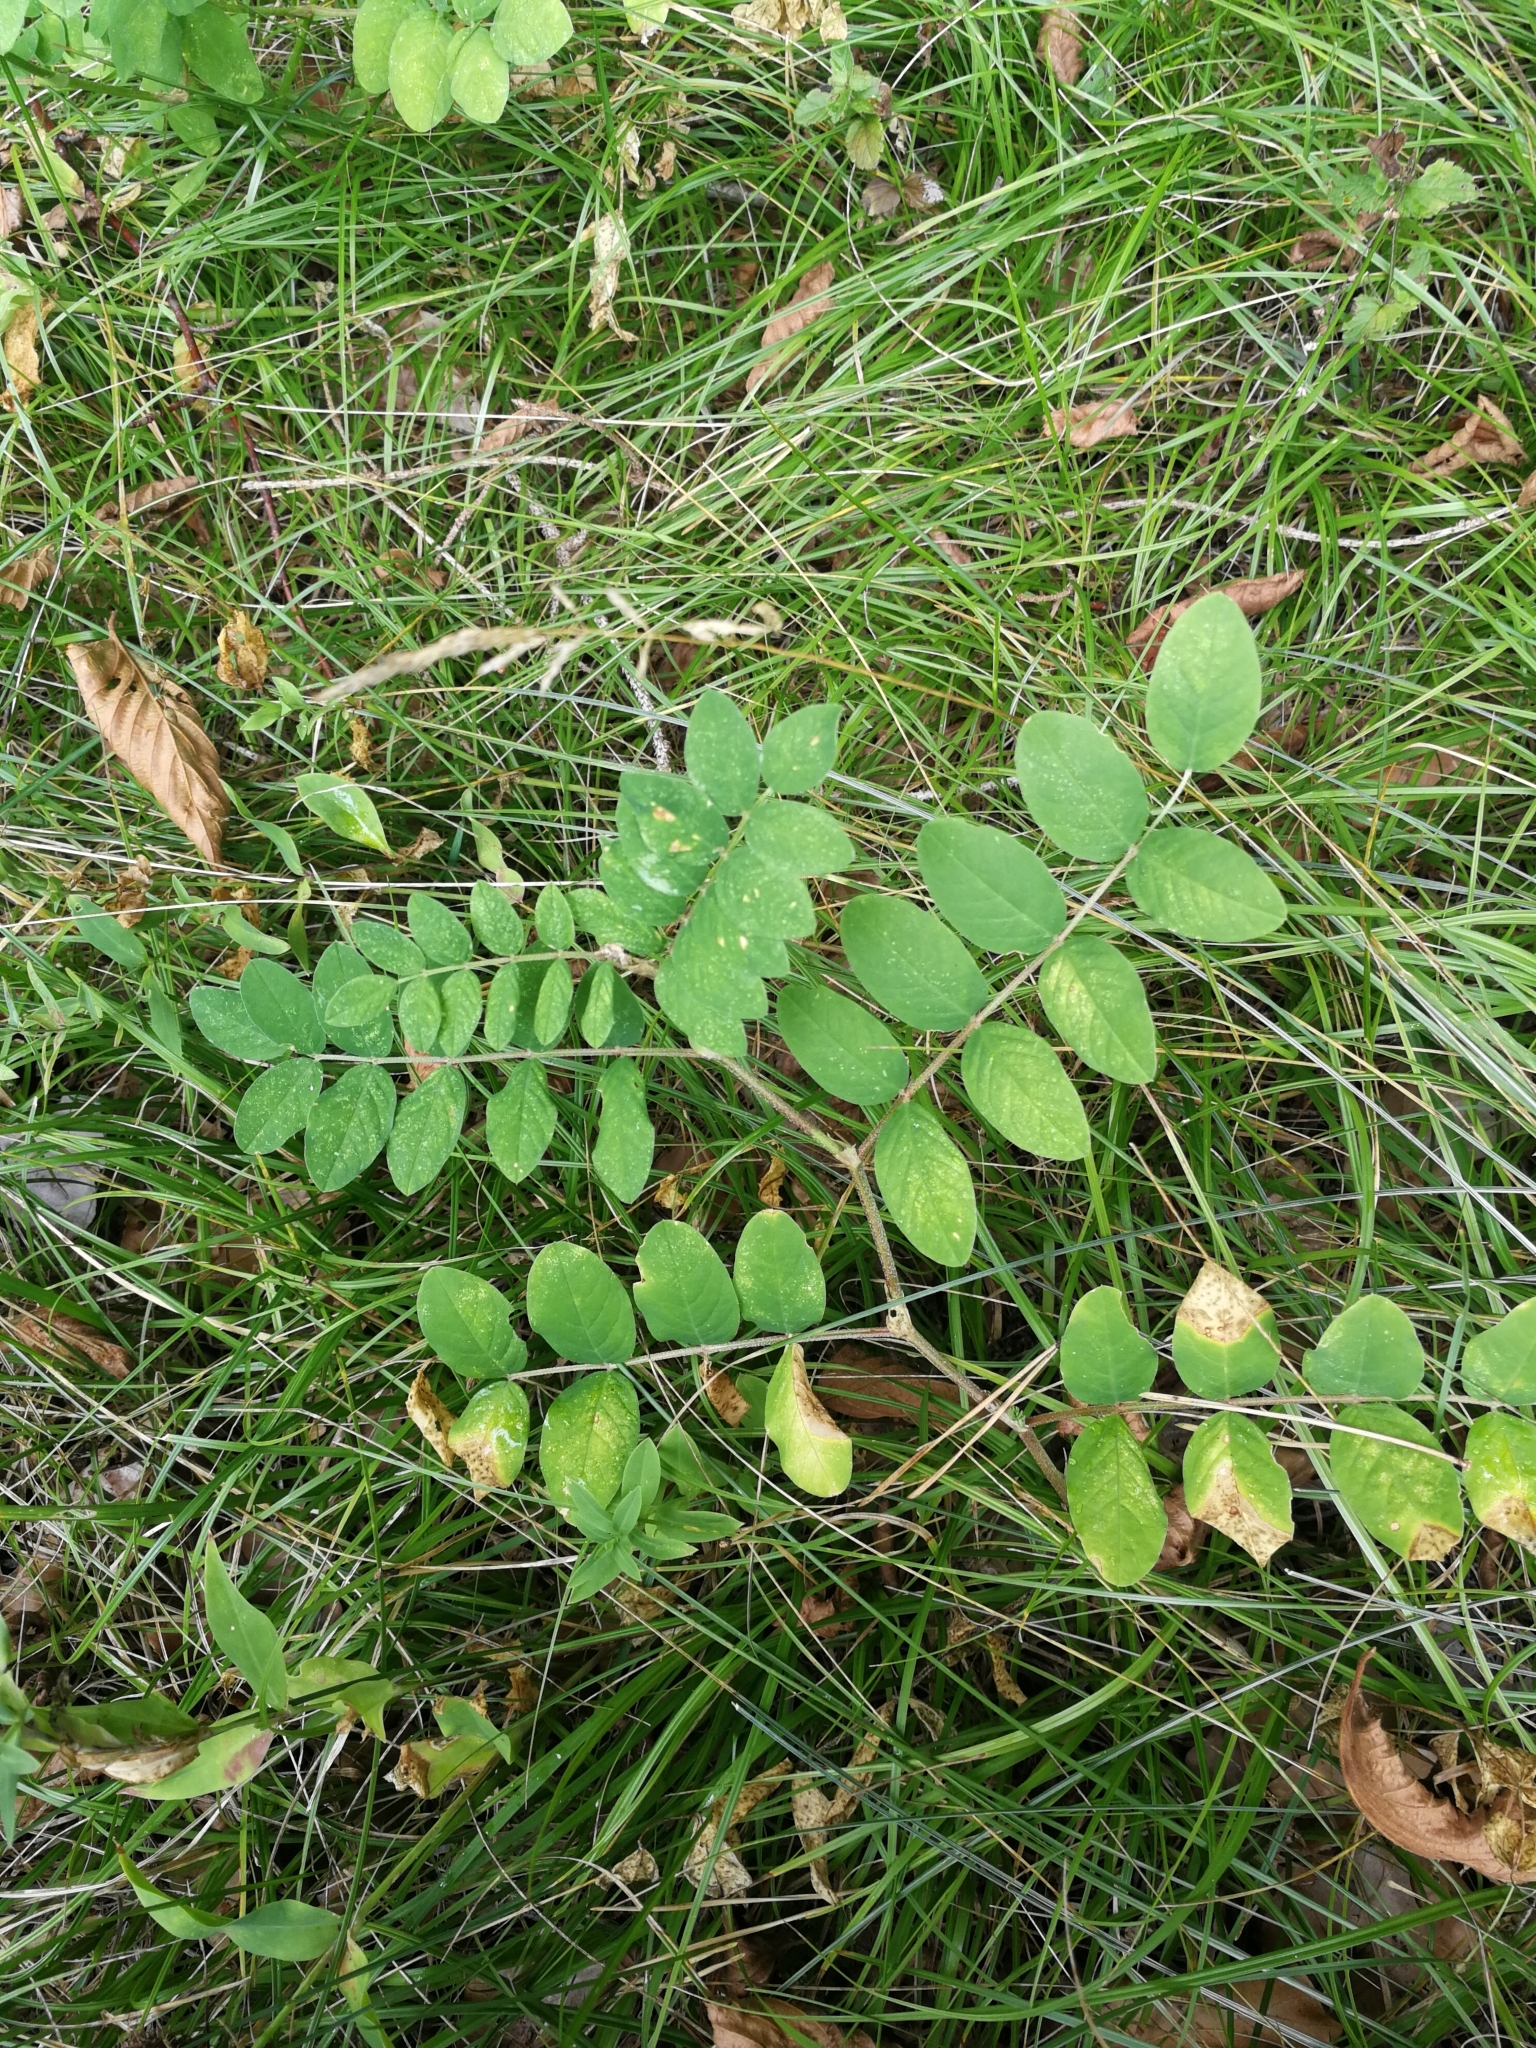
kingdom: Plantae
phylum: Tracheophyta
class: Magnoliopsida
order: Fabales
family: Fabaceae
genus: Astragalus
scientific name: Astragalus glycyphyllos
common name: Wild liquorice
